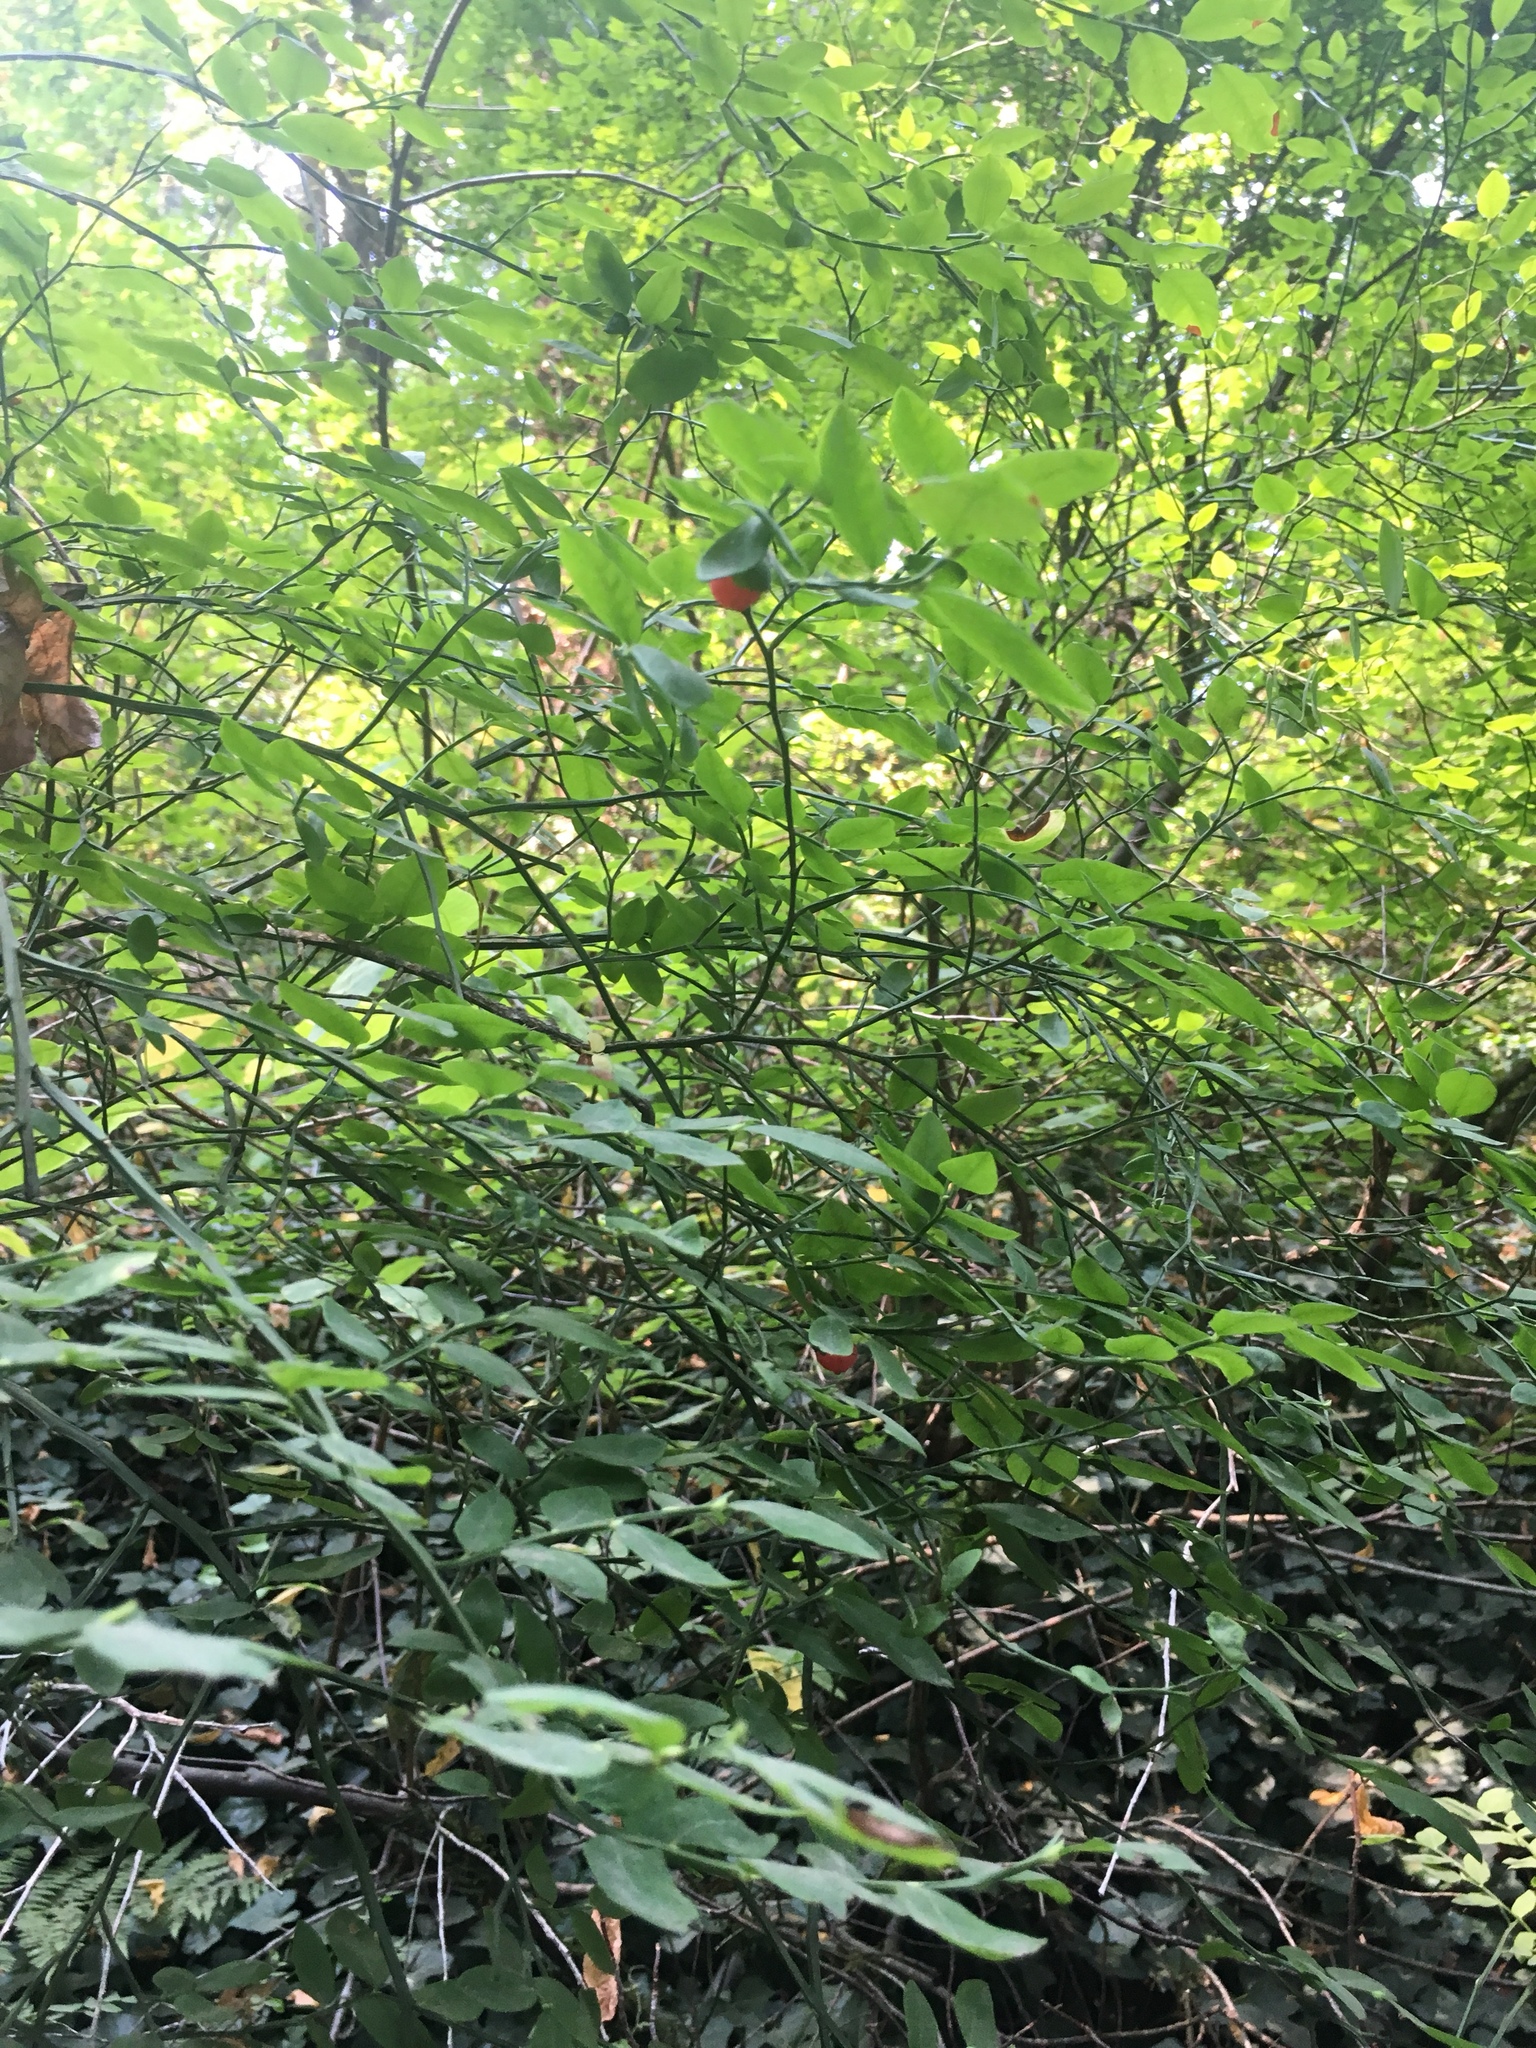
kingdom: Plantae
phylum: Tracheophyta
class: Magnoliopsida
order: Ericales
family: Ericaceae
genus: Vaccinium
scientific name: Vaccinium parvifolium
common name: Red-huckleberry
